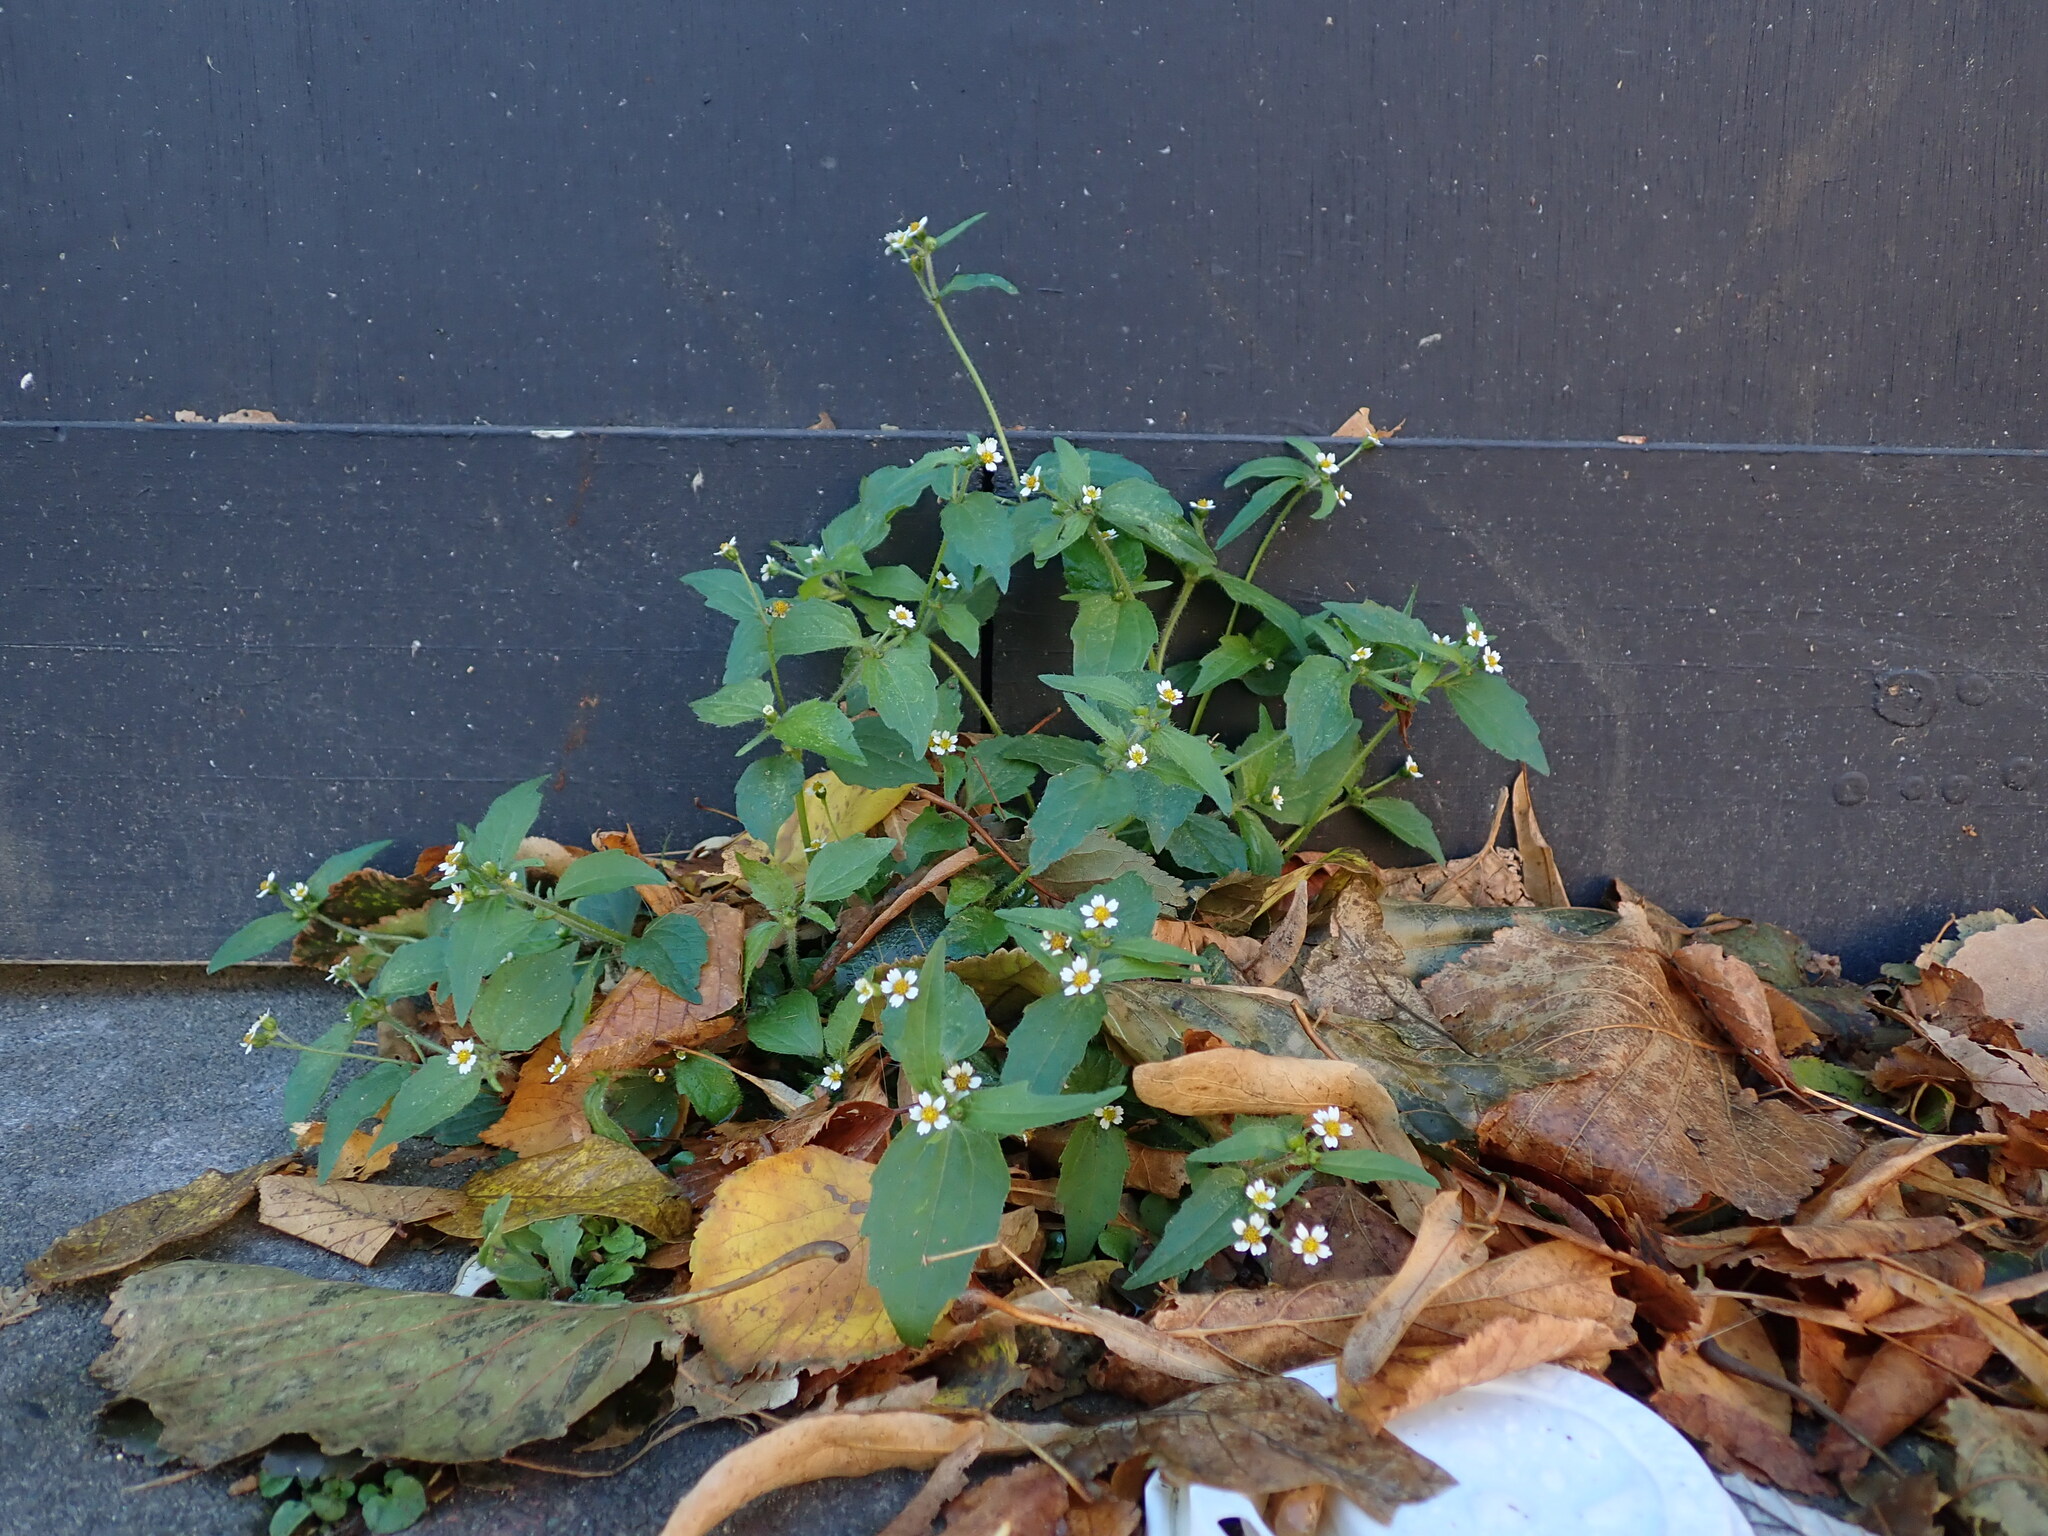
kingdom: Plantae
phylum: Tracheophyta
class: Magnoliopsida
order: Asterales
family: Asteraceae
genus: Galinsoga
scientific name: Galinsoga quadriradiata
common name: Shaggy soldier
